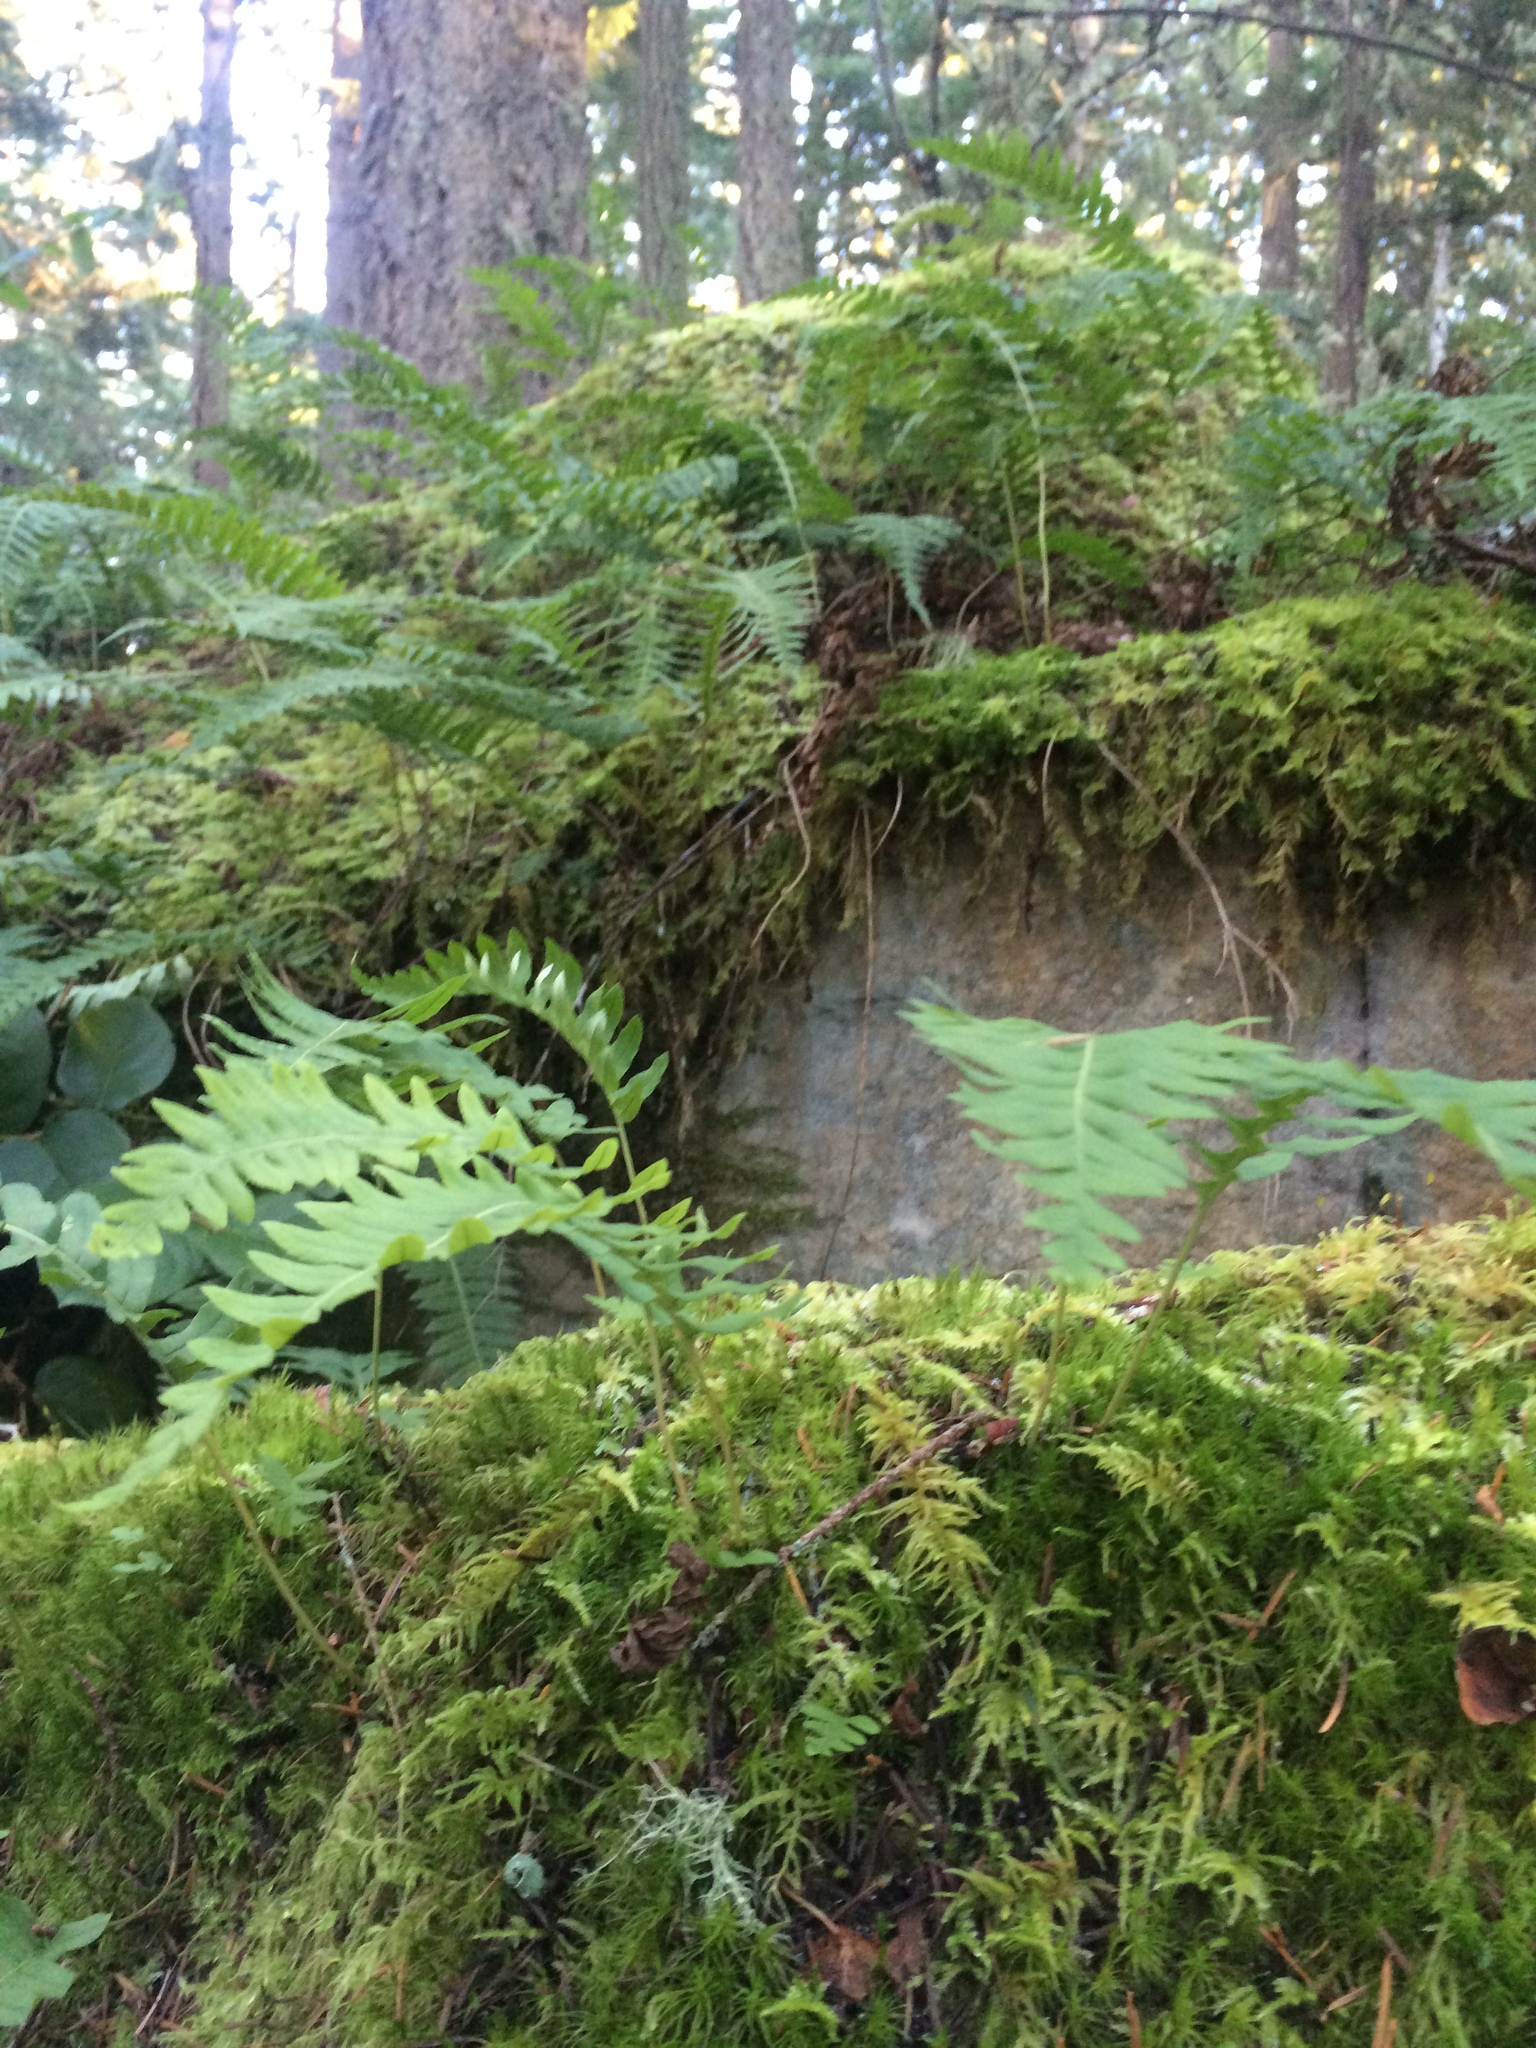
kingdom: Plantae
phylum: Tracheophyta
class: Polypodiopsida
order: Polypodiales
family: Polypodiaceae
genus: Polypodium
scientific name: Polypodium glycyrrhiza
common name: Licorice fern
